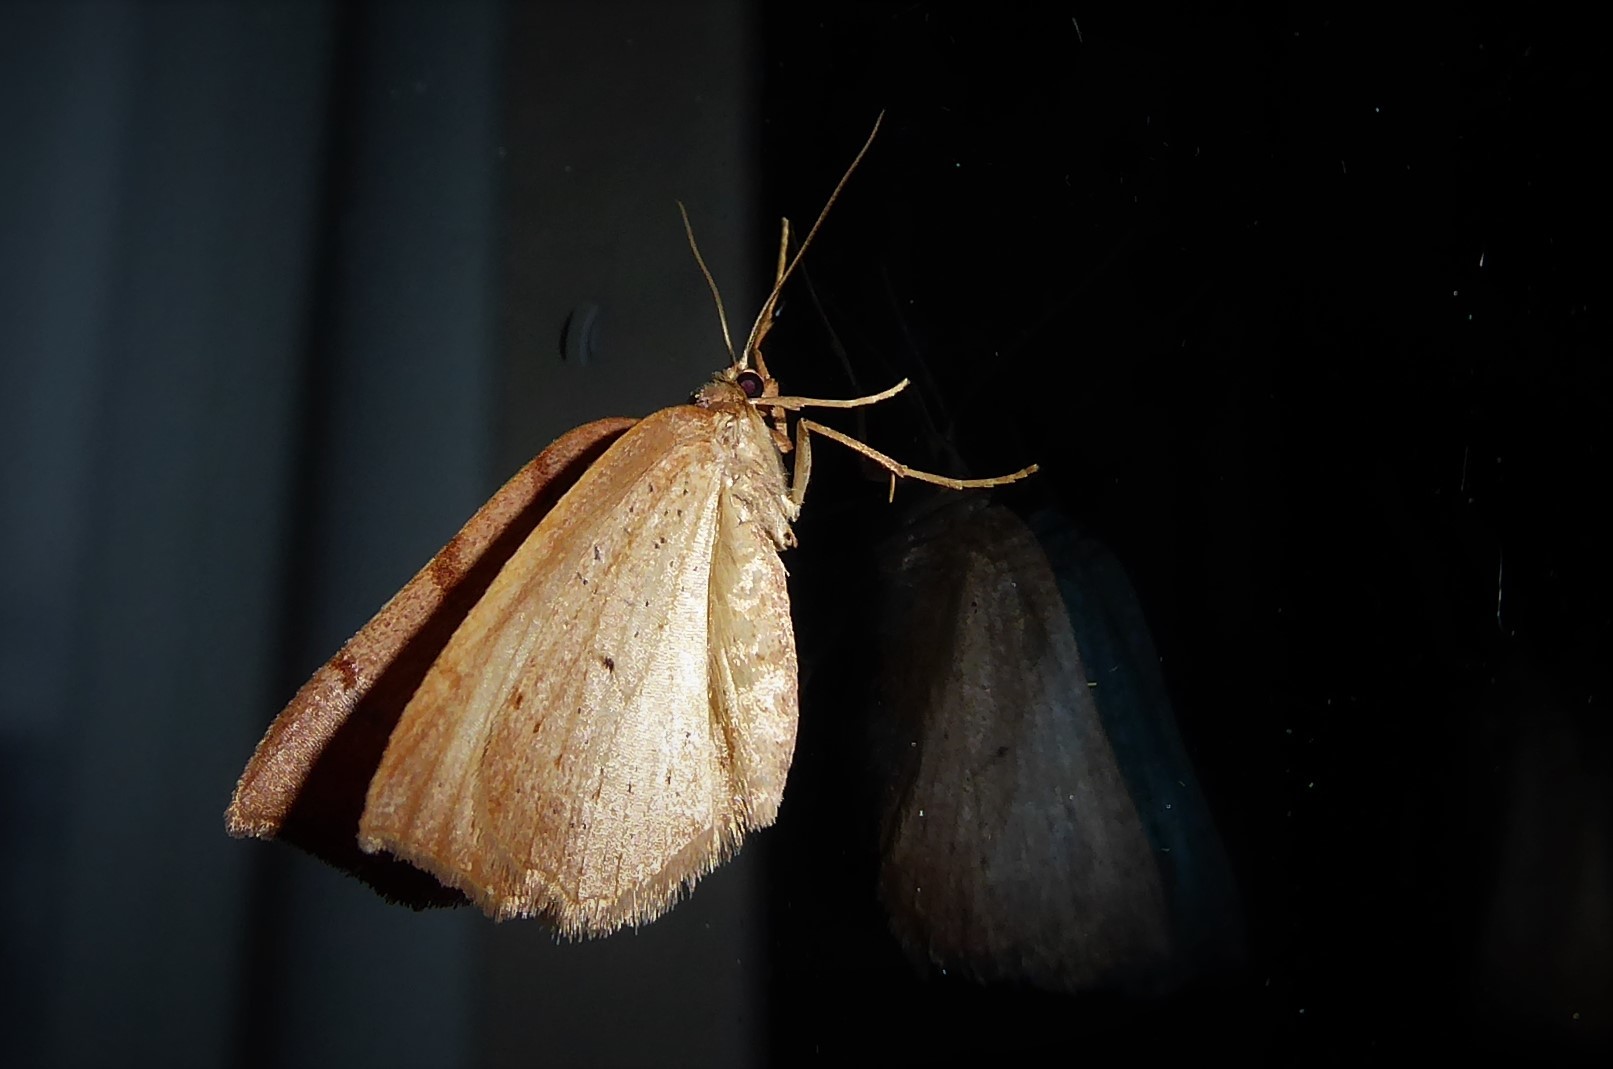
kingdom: Animalia
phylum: Arthropoda
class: Insecta
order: Lepidoptera
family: Geometridae
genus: Sestra
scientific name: Sestra humeraria
